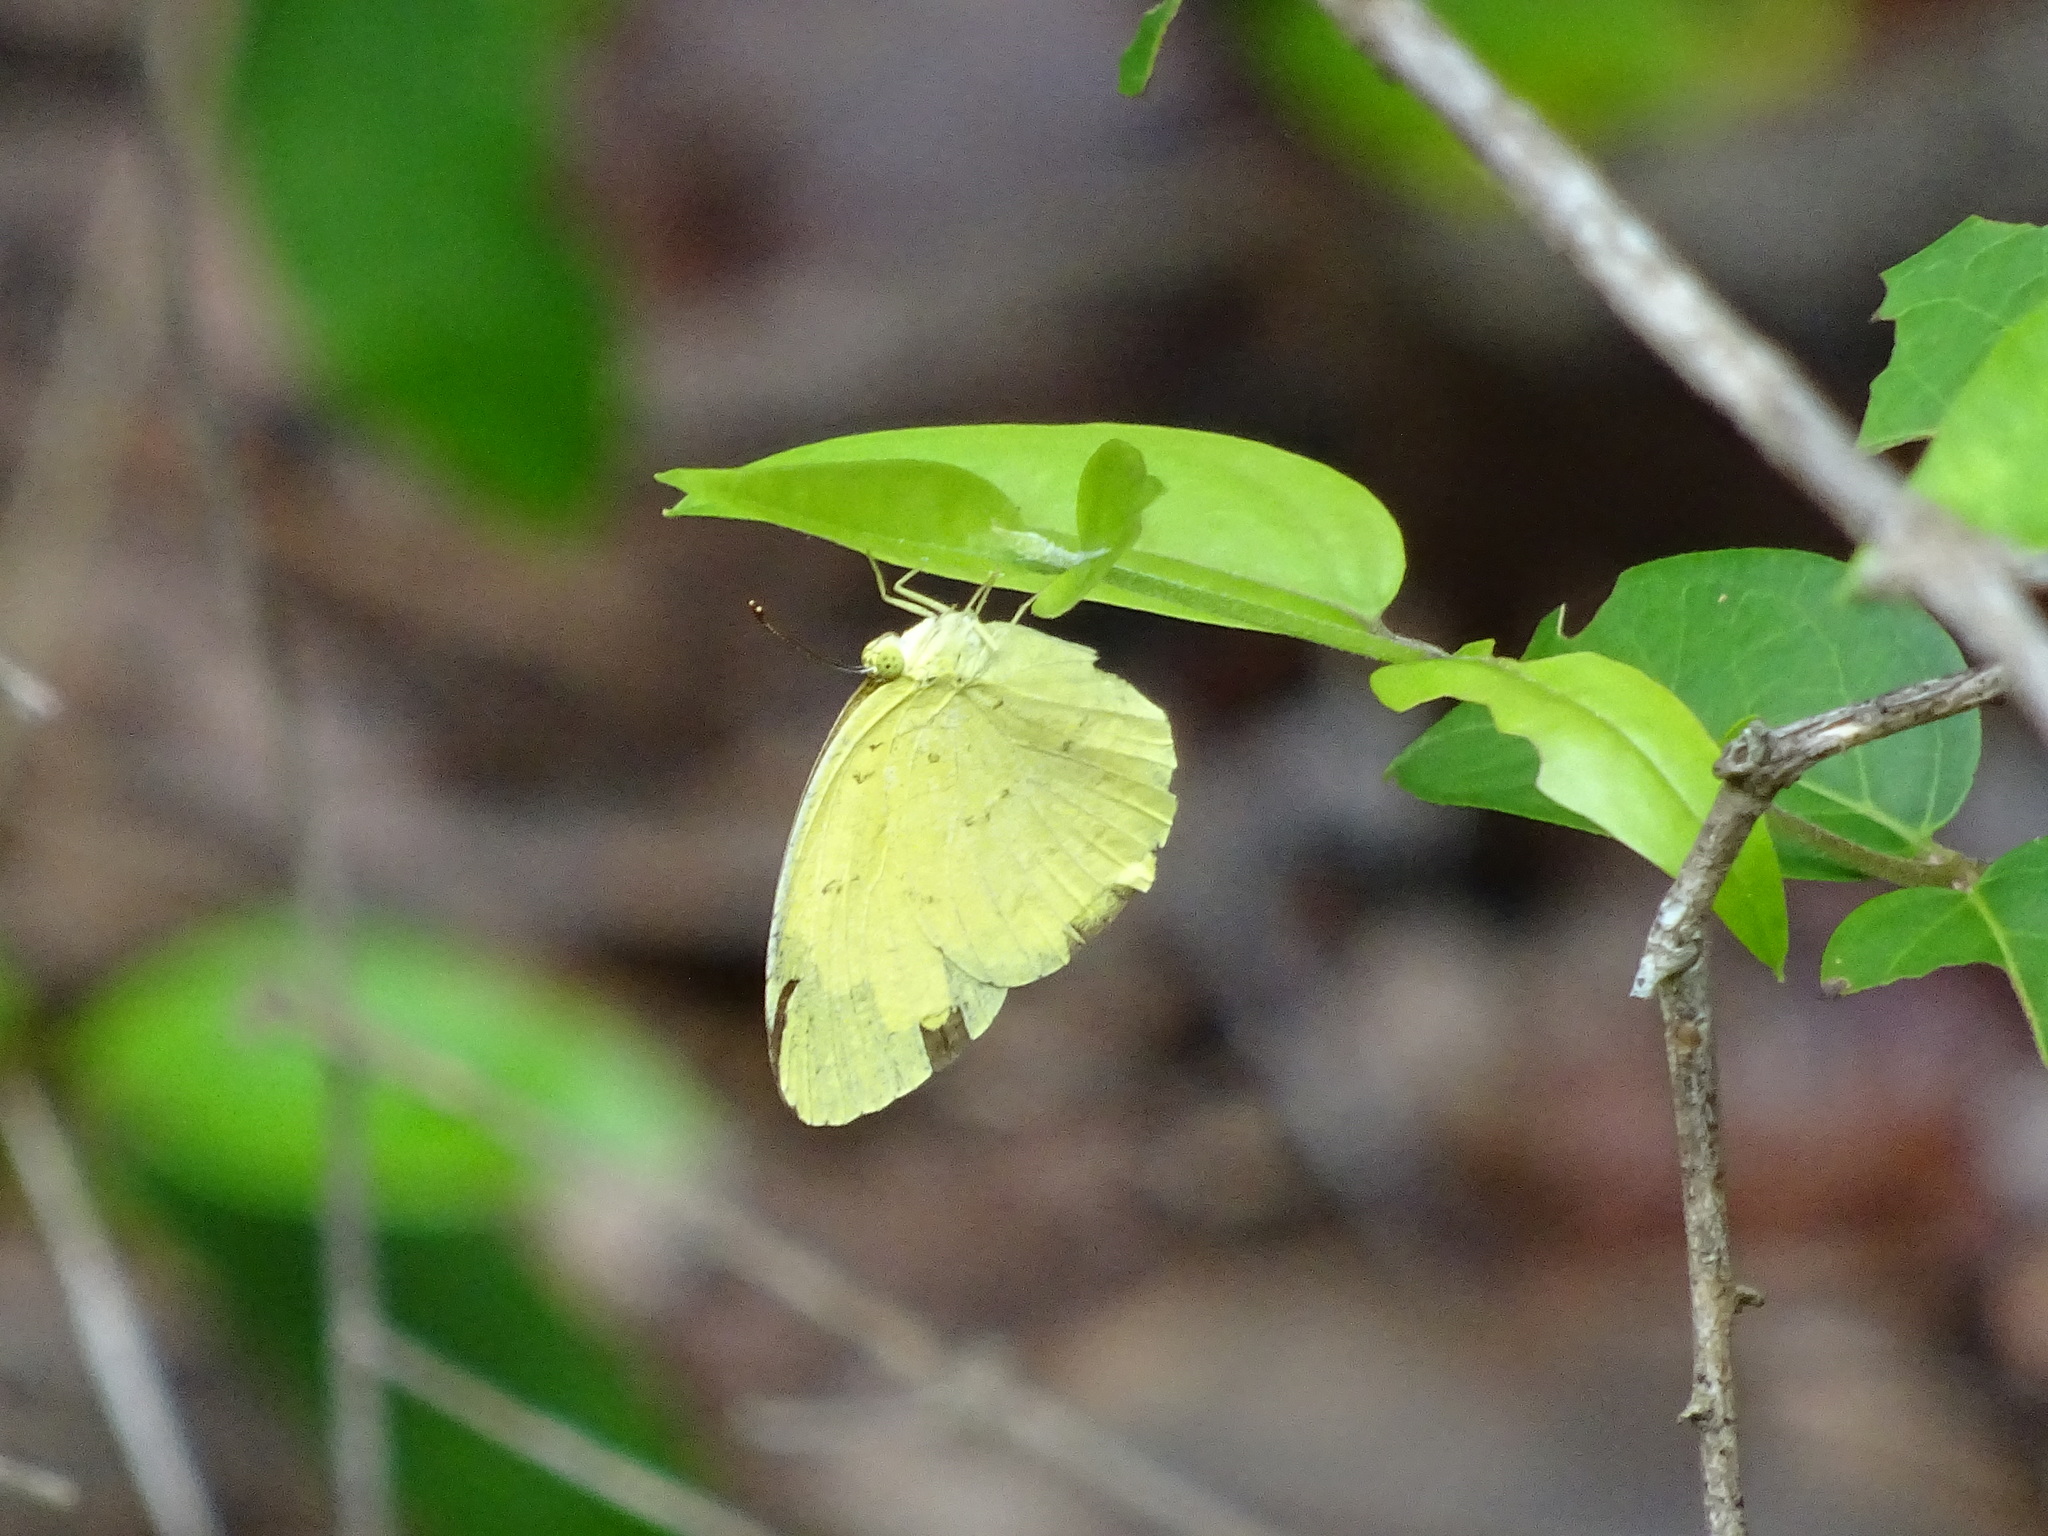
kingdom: Animalia
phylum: Arthropoda
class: Insecta
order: Lepidoptera
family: Pieridae
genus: Eurema
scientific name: Eurema hecabe
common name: Pale grass yellow
